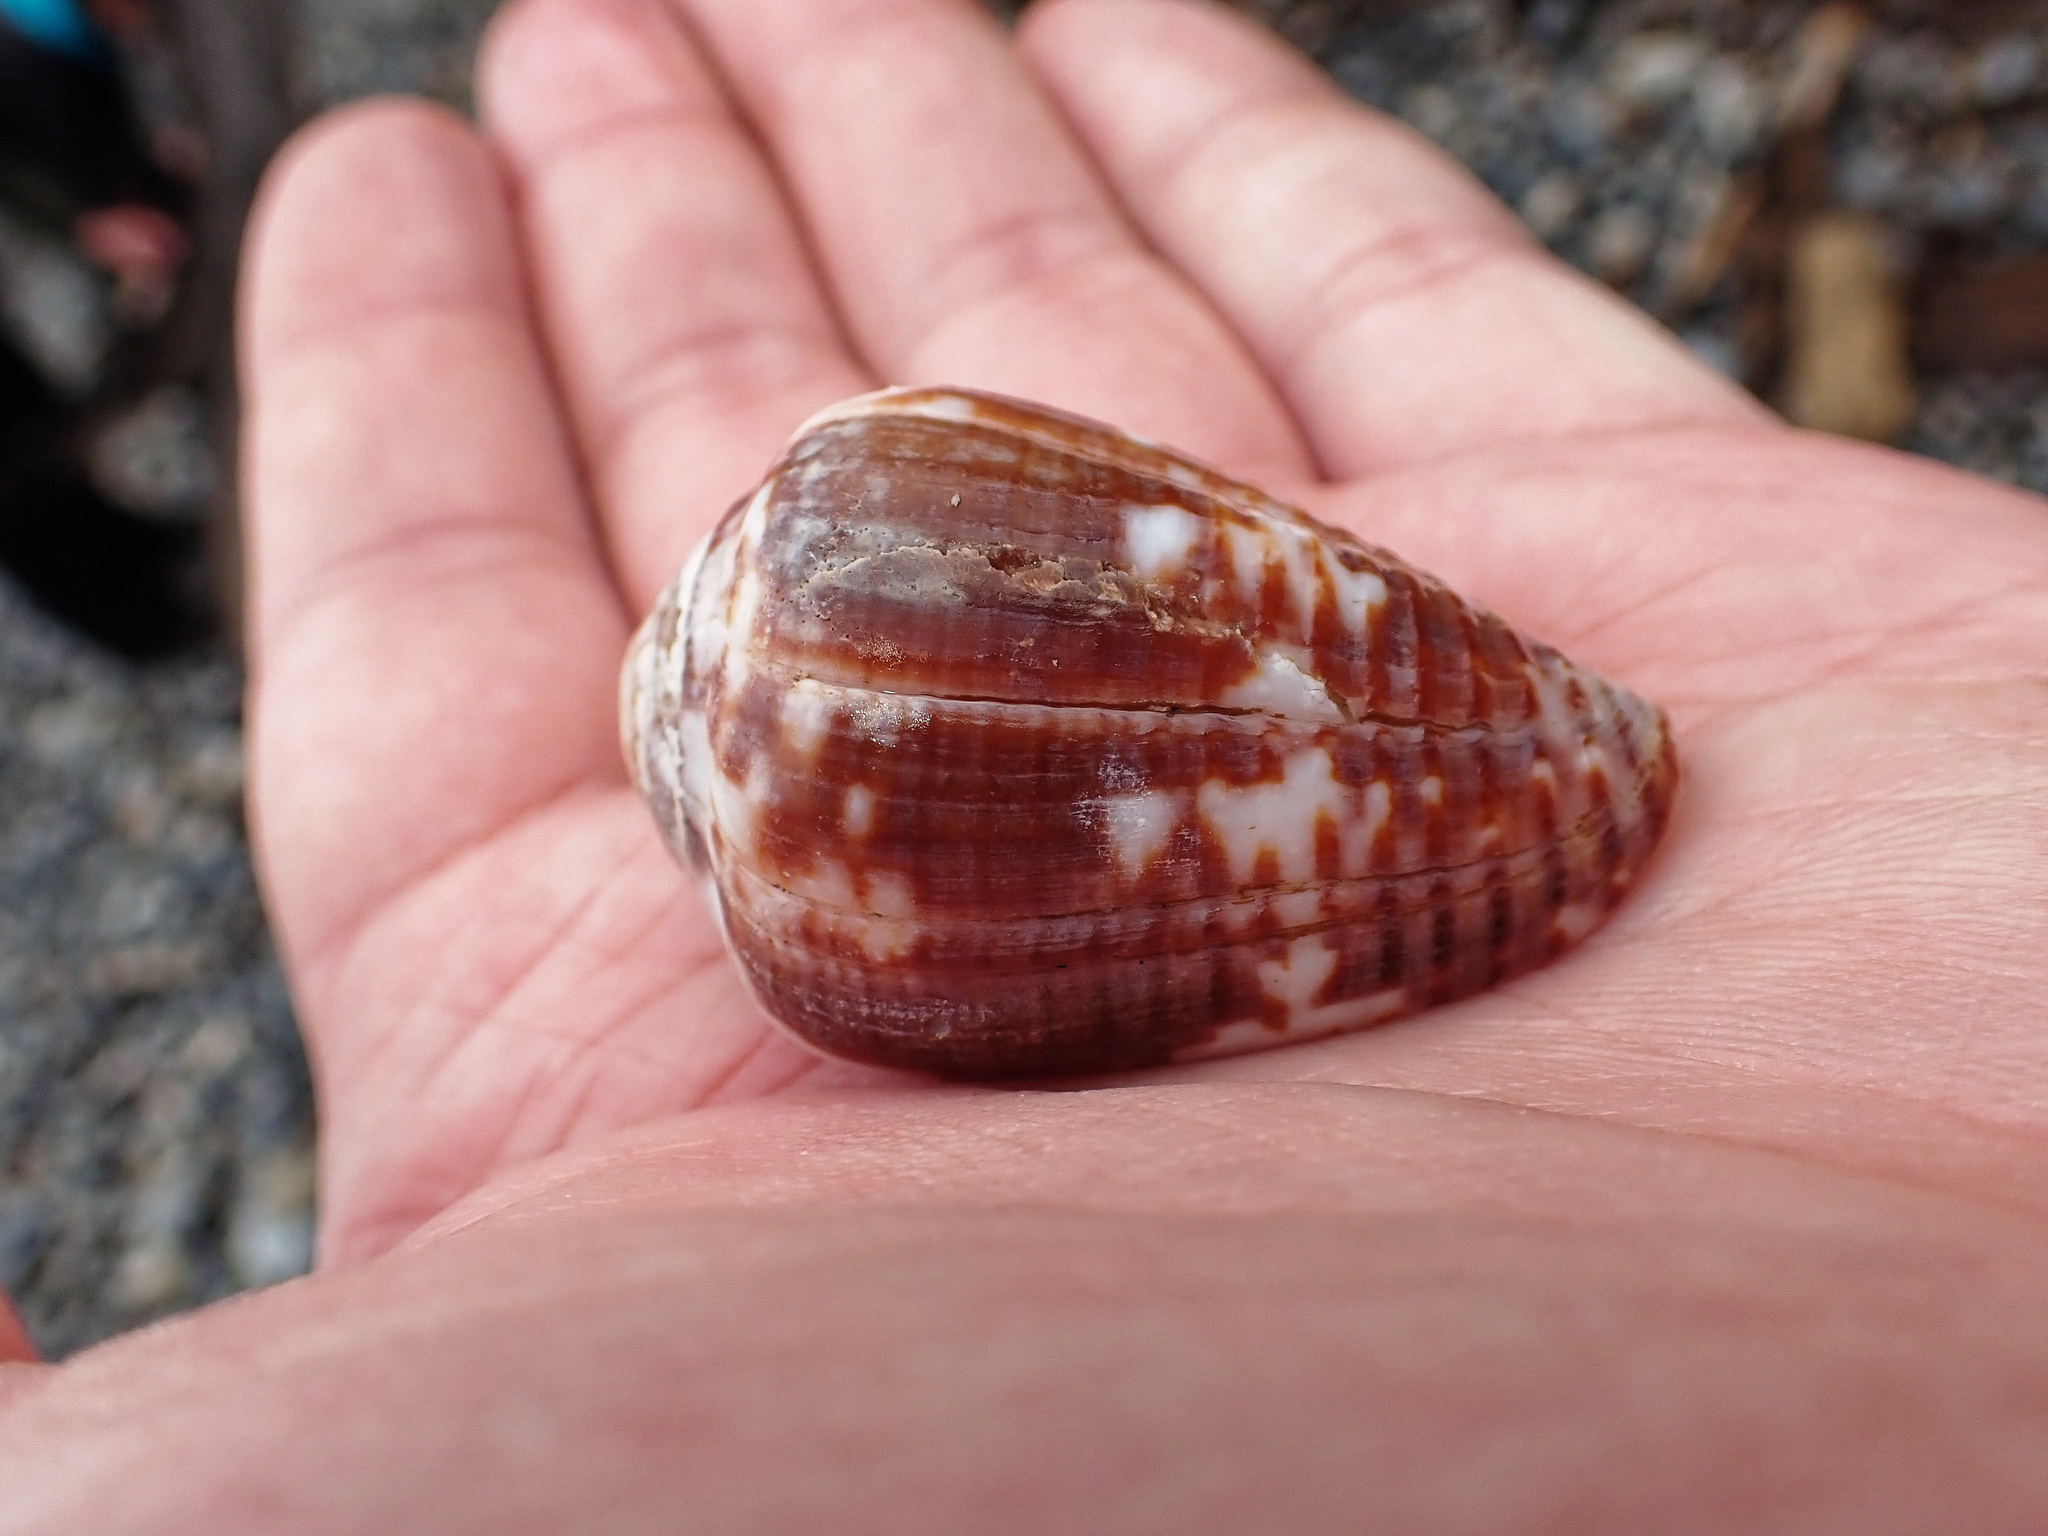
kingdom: Animalia
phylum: Mollusca
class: Gastropoda
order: Neogastropoda
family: Conidae
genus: Conus
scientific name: Conus catus
